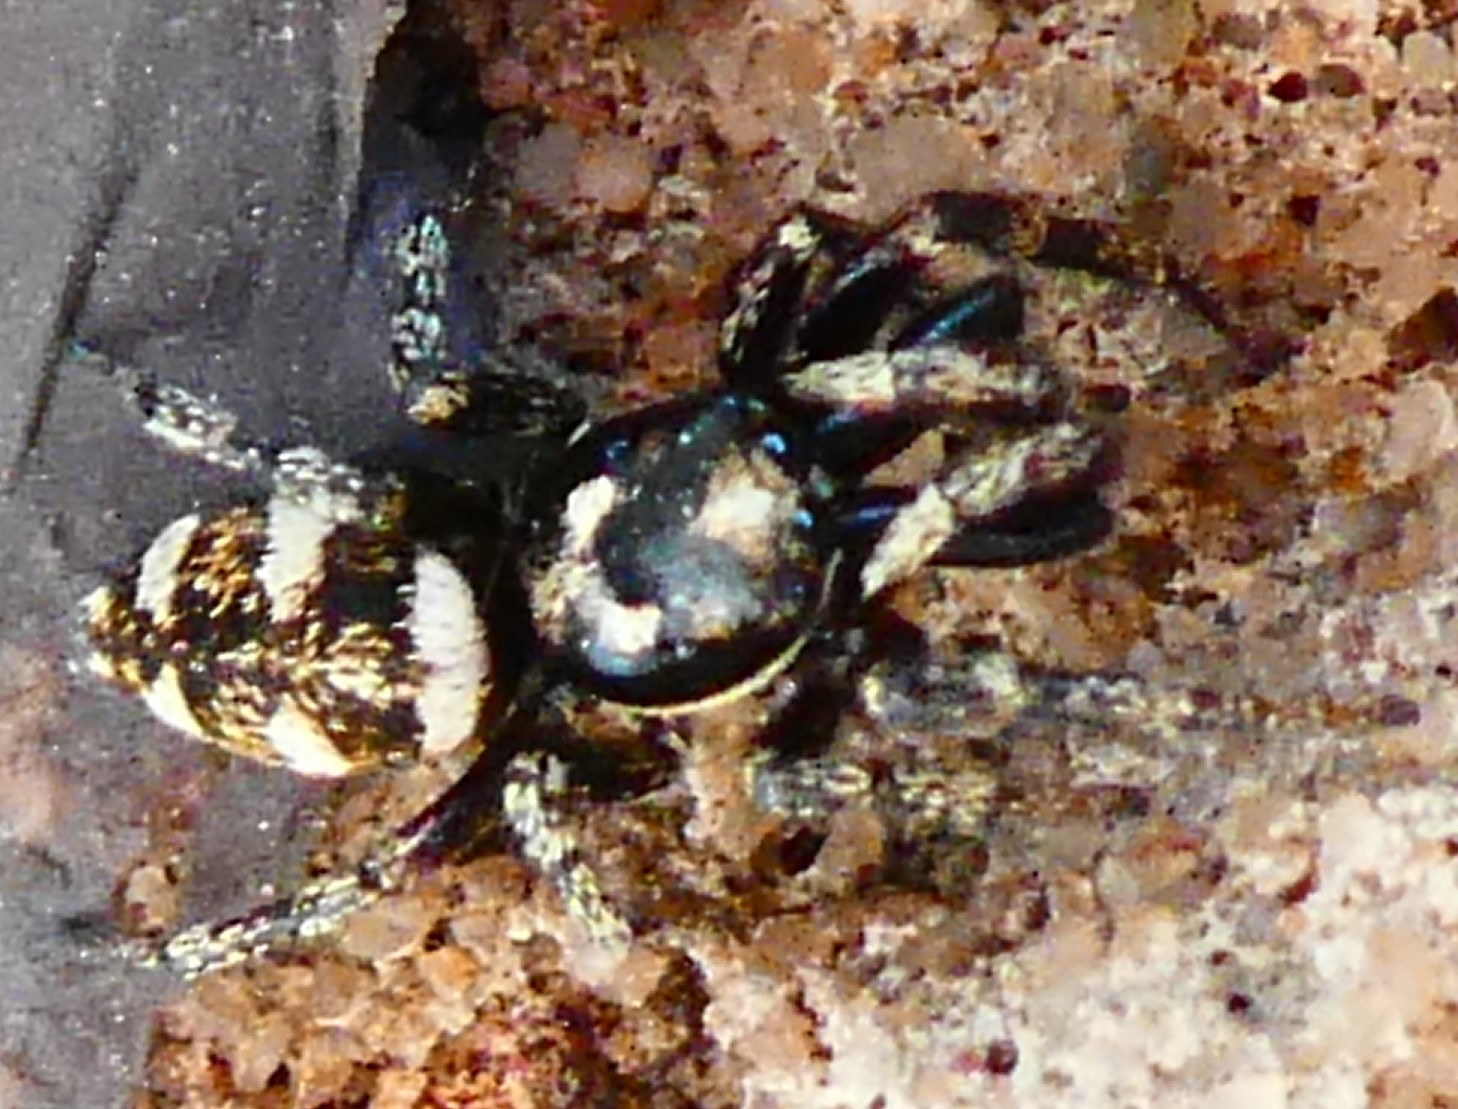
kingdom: Animalia
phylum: Arthropoda
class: Arachnida
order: Araneae
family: Salticidae
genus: Salticus
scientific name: Salticus scenicus
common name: Zebra jumper
